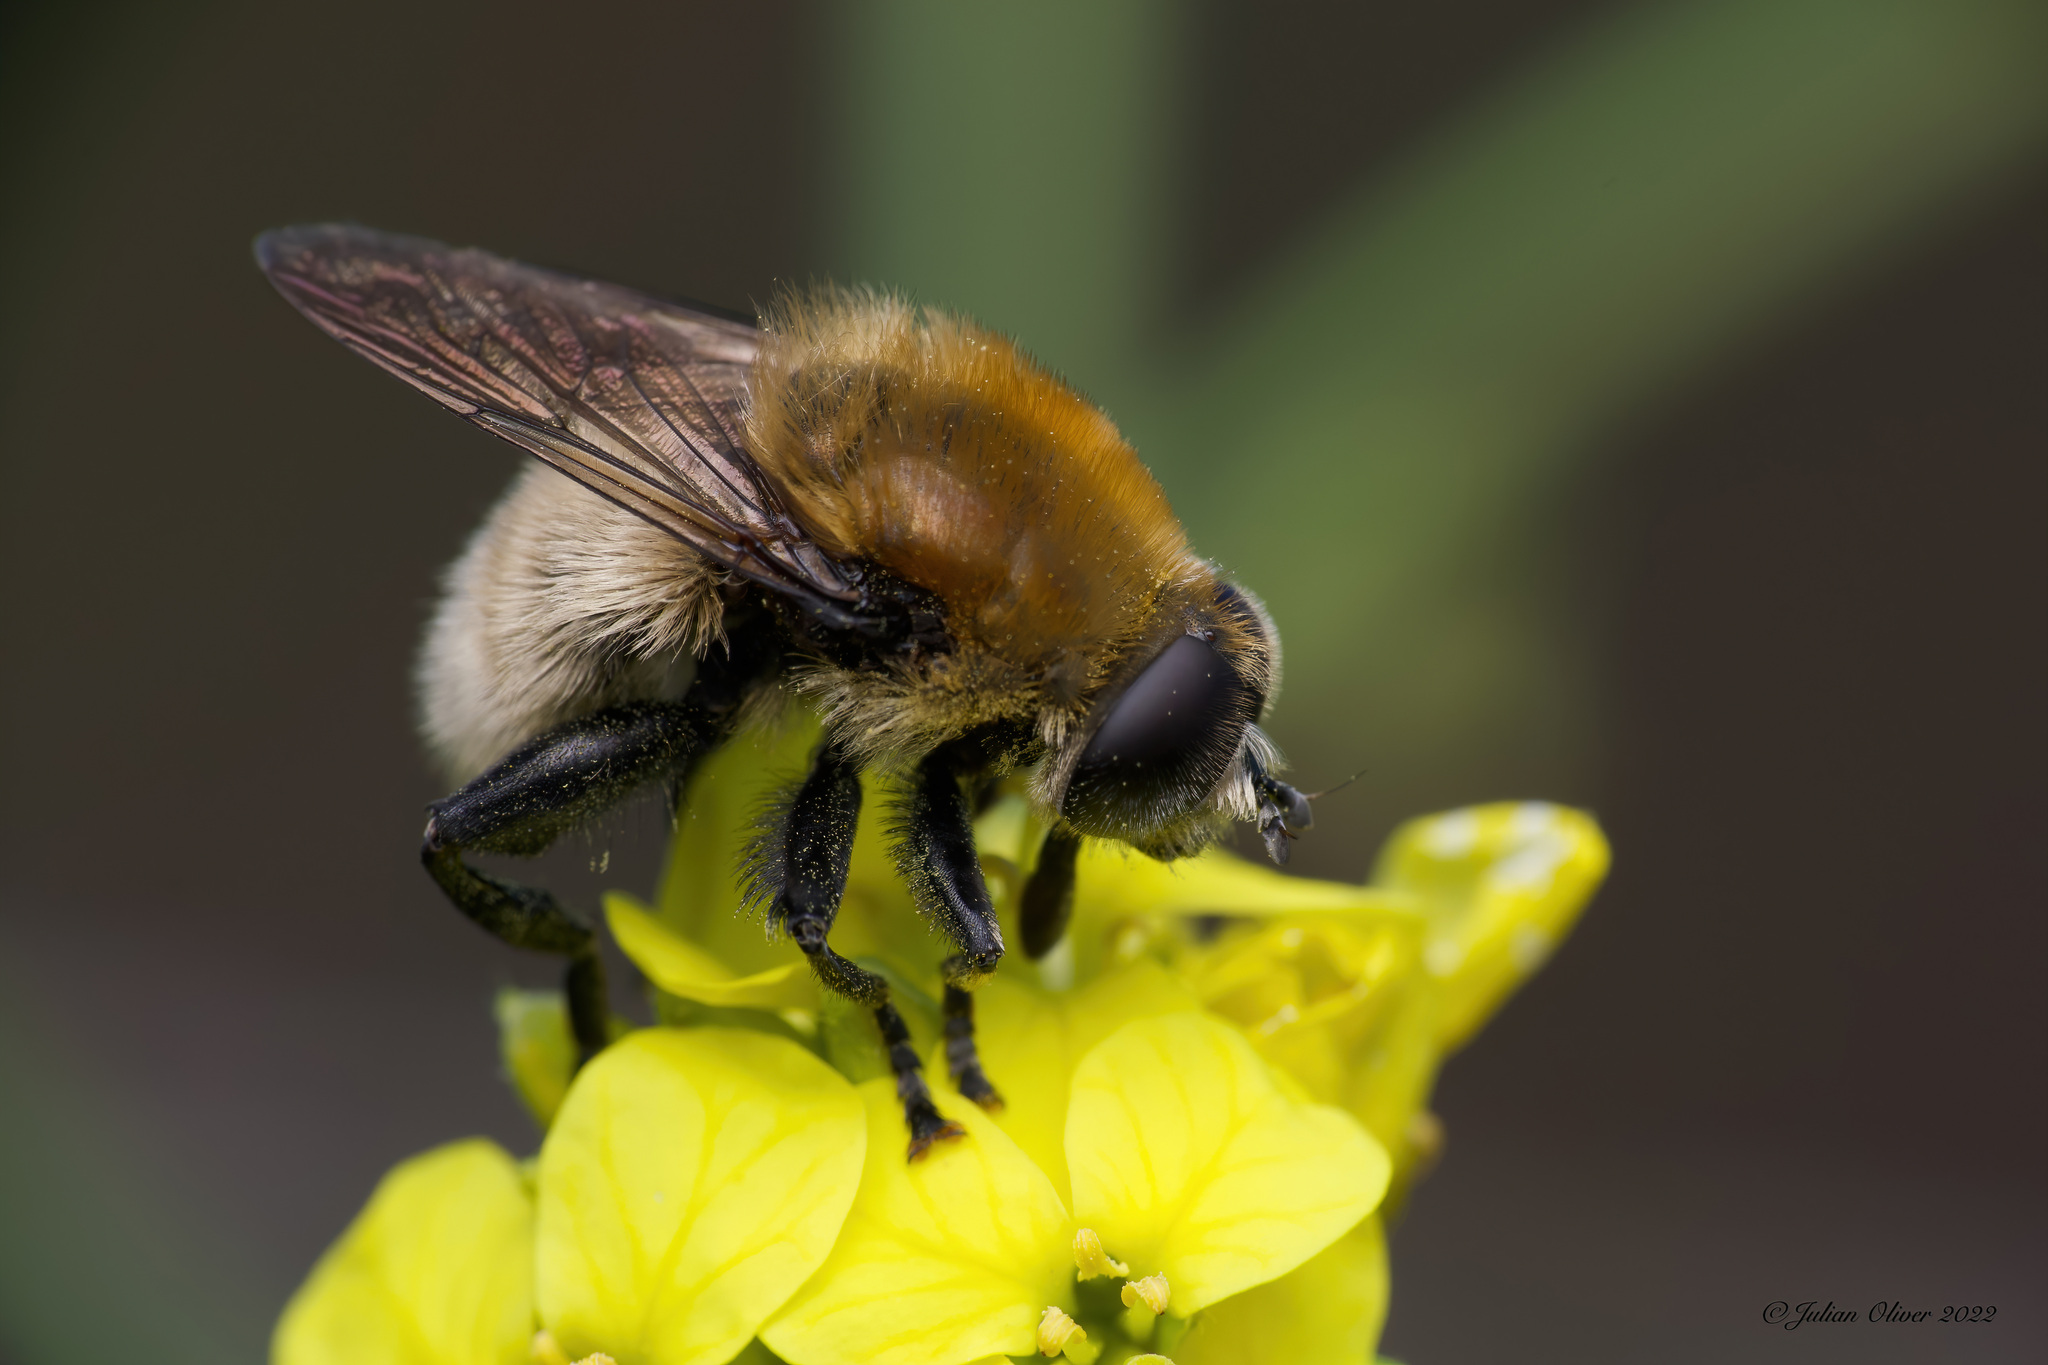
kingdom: Animalia
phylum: Arthropoda
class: Insecta
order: Diptera
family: Syrphidae
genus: Merodon
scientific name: Merodon equestris
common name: Greater bulb-fly
